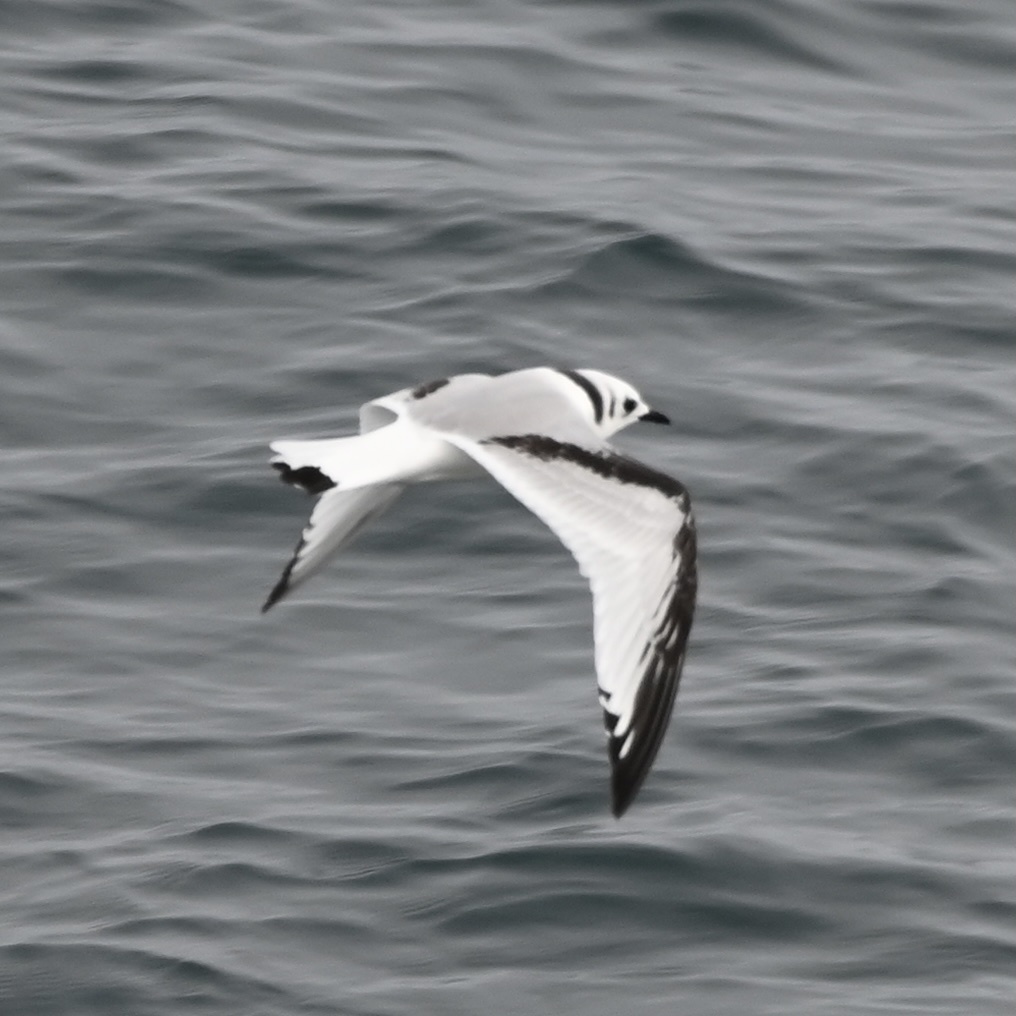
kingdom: Animalia
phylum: Chordata
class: Aves
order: Charadriiformes
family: Laridae
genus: Rissa
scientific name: Rissa tridactyla
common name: Black-legged kittiwake
